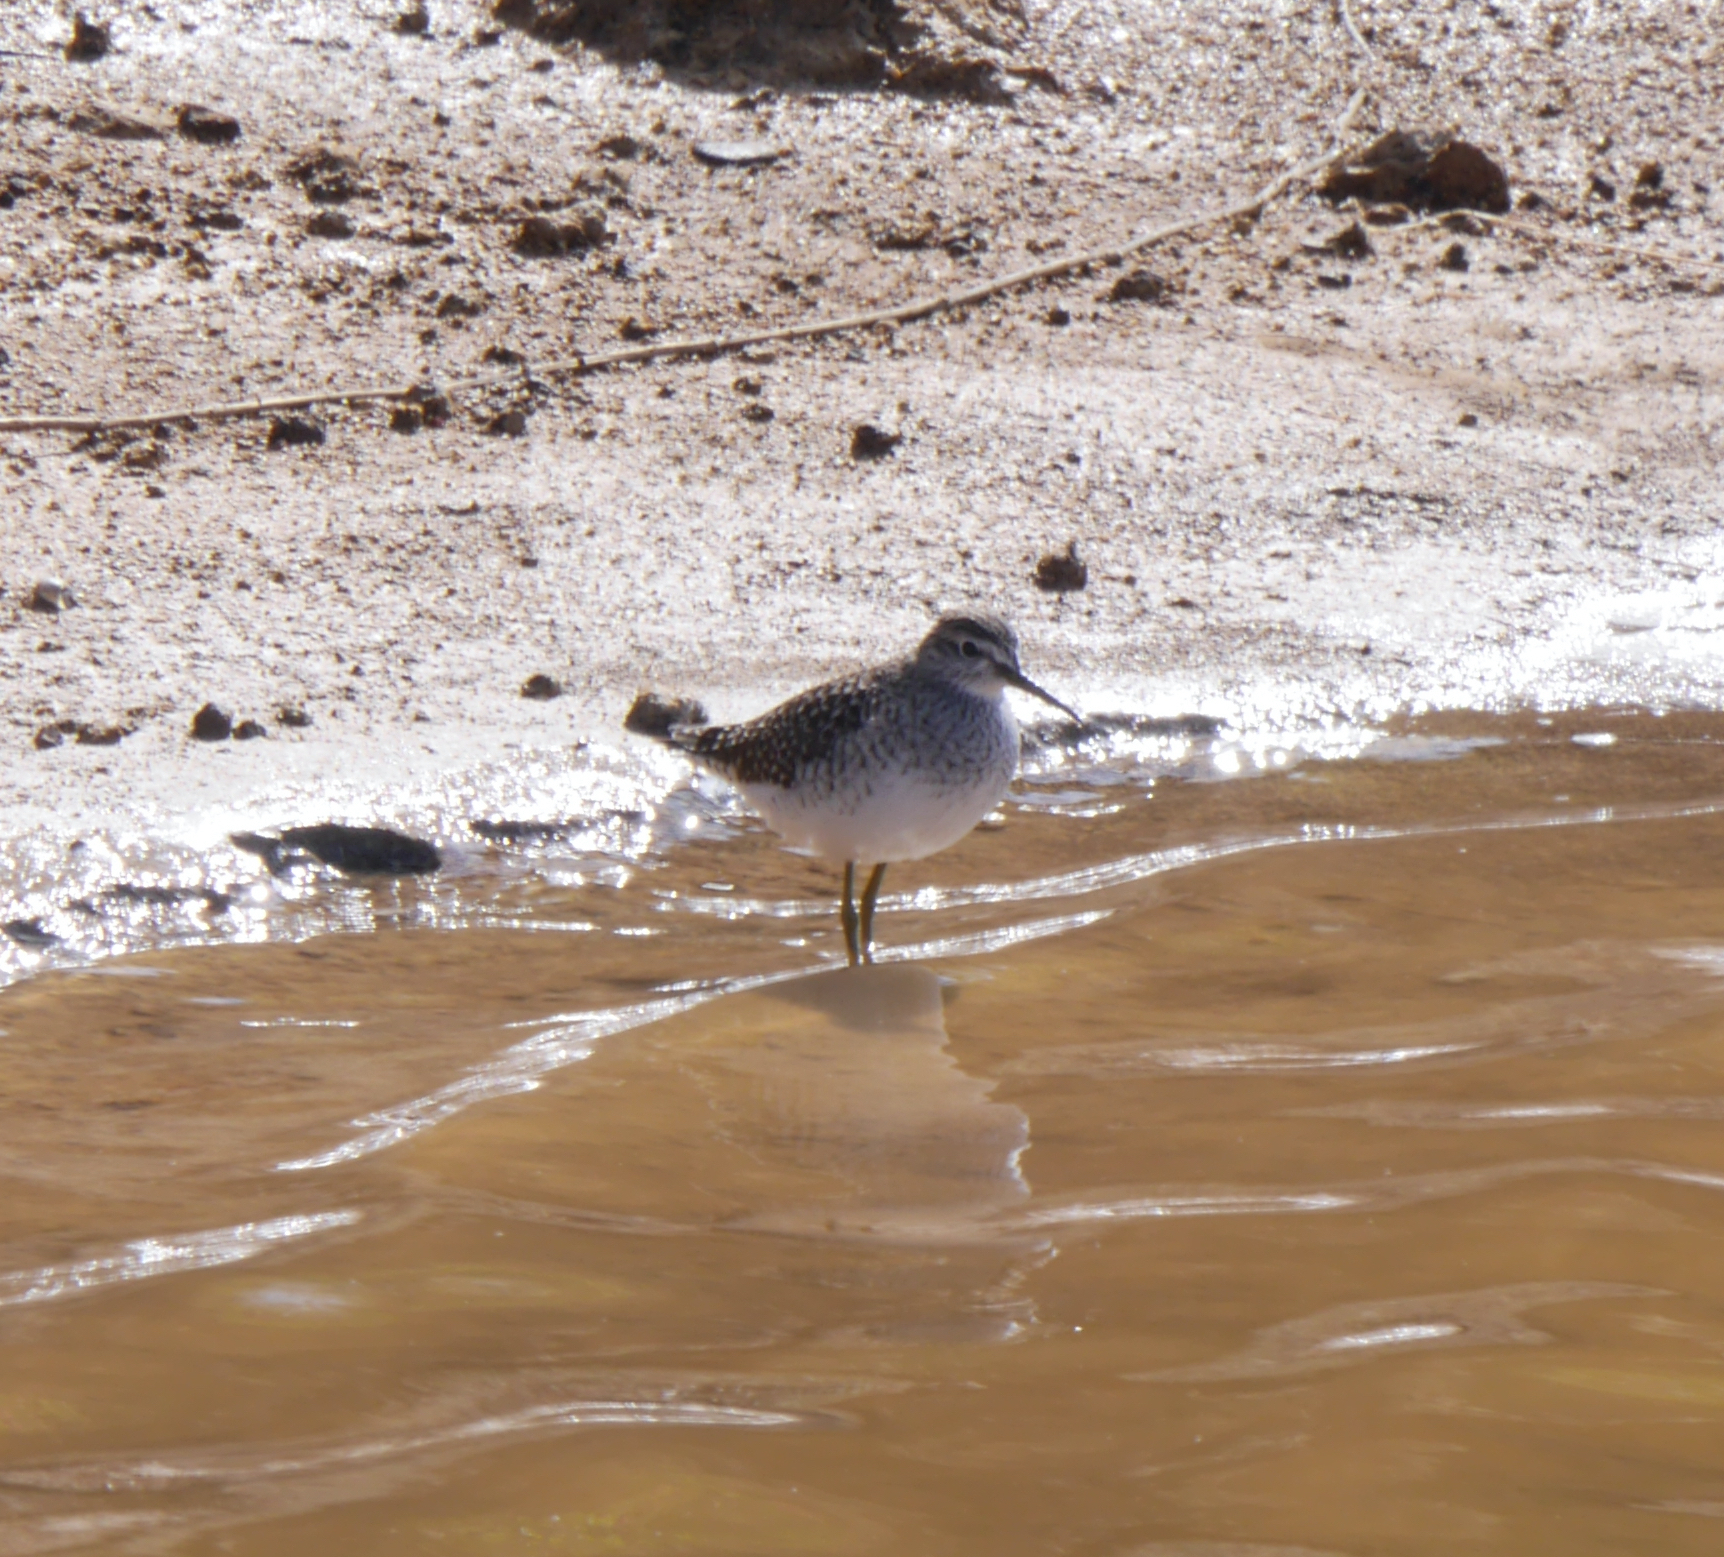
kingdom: Animalia
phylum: Chordata
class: Aves
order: Charadriiformes
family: Scolopacidae
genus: Tringa
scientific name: Tringa glareola
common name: Wood sandpiper
